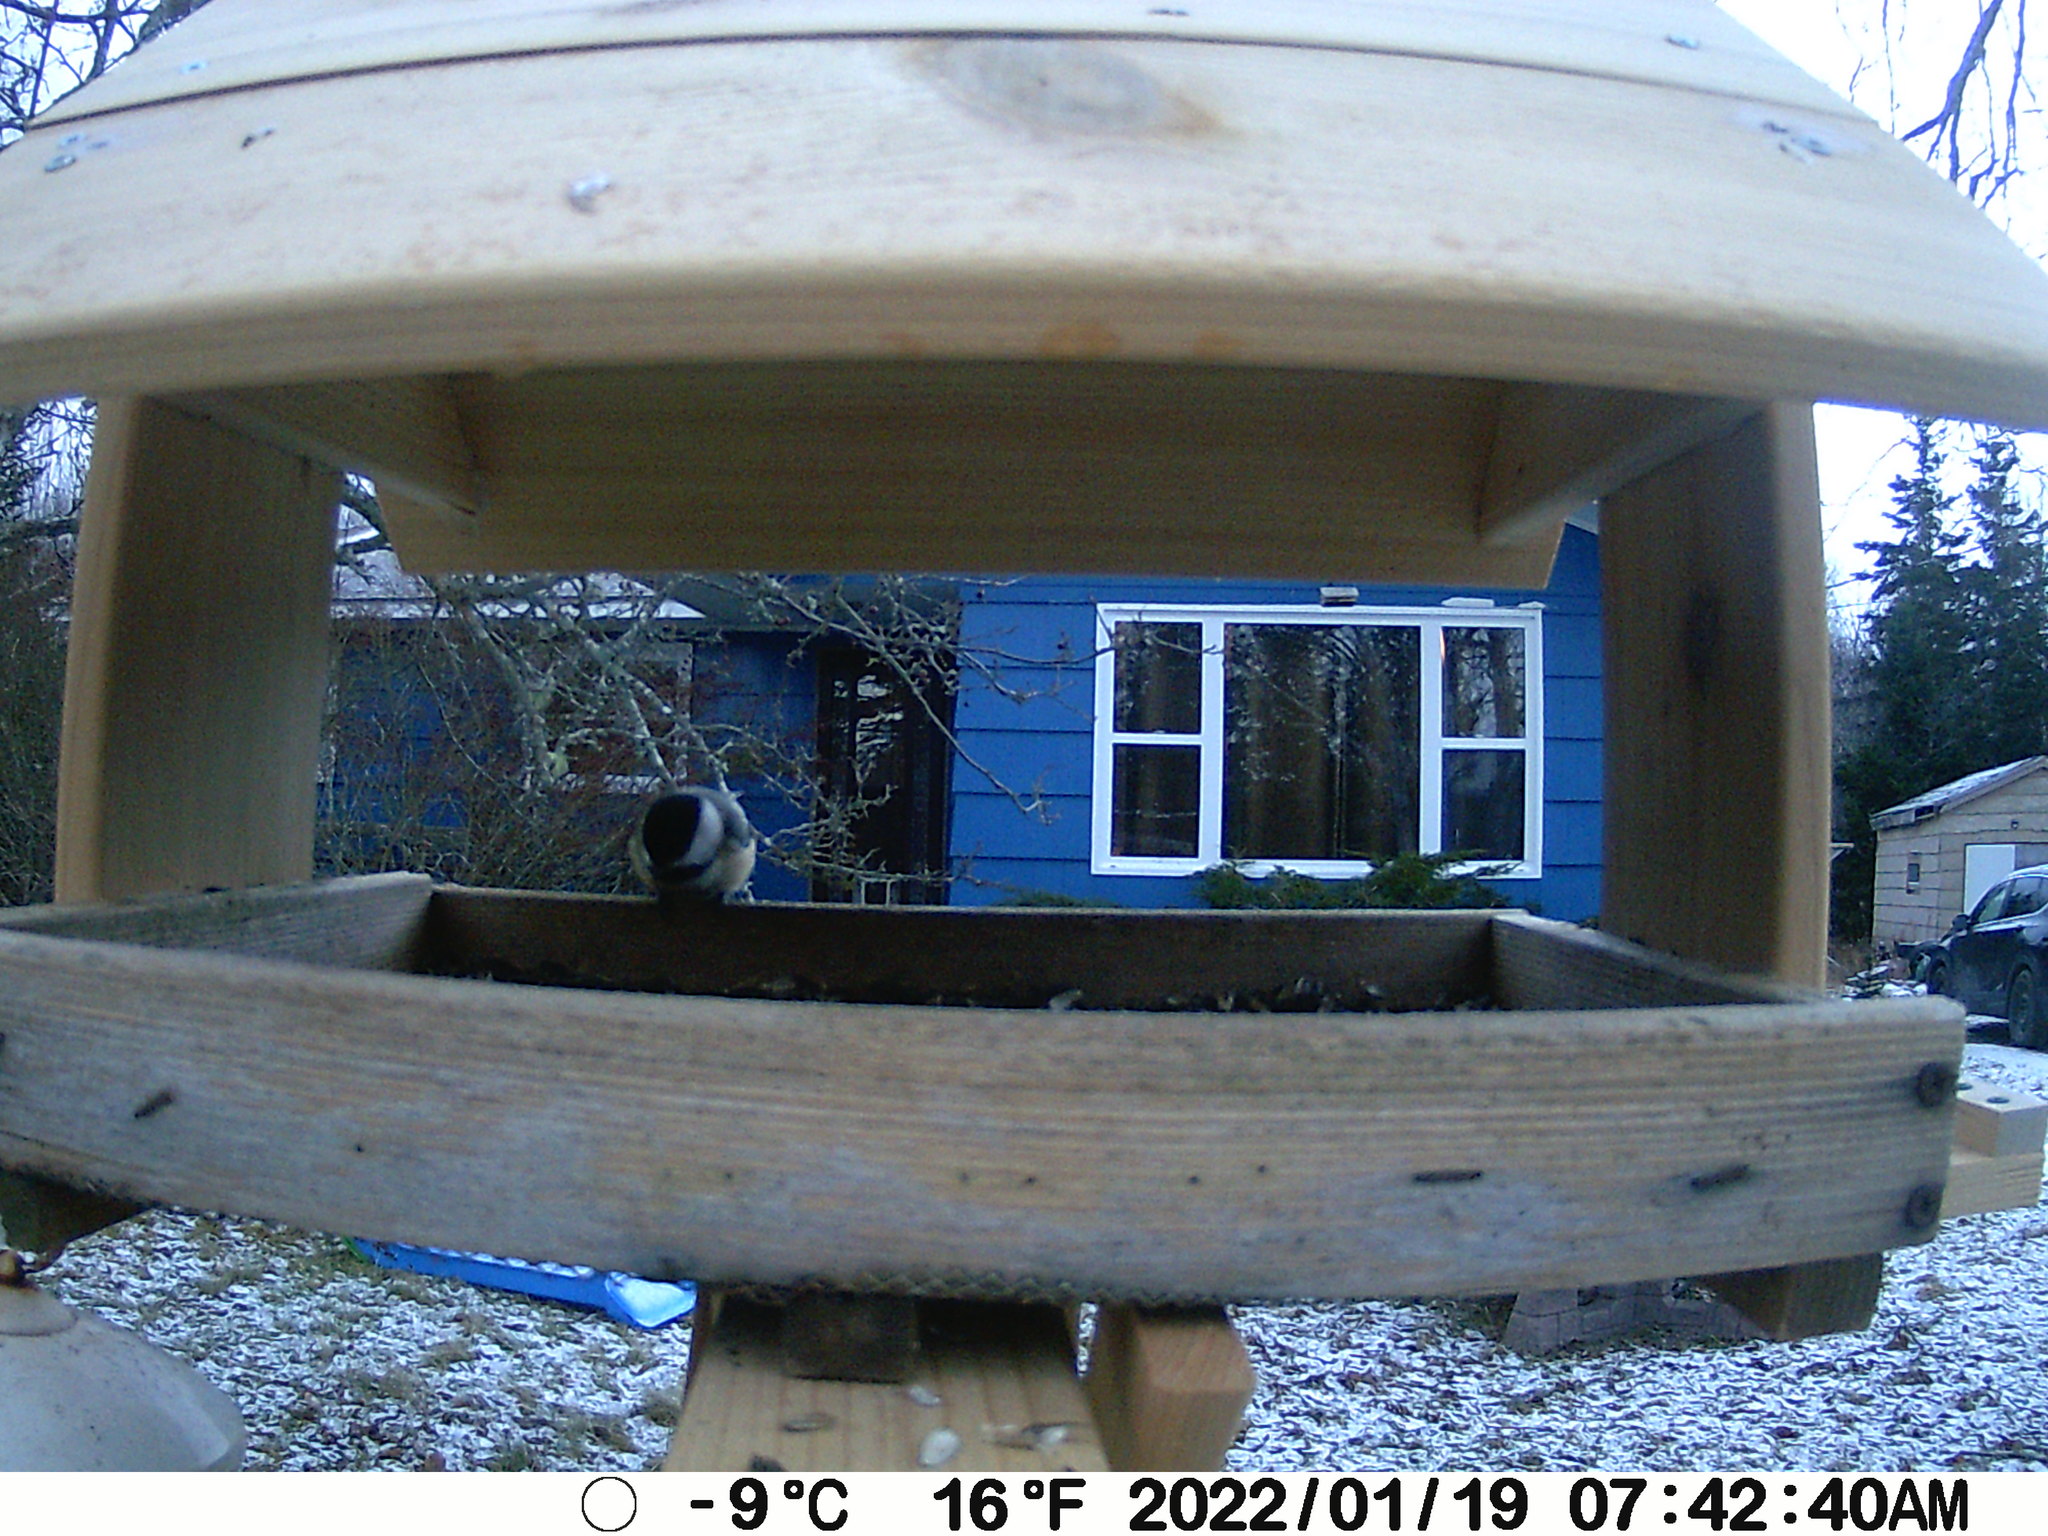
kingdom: Animalia
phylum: Chordata
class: Aves
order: Passeriformes
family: Paridae
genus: Poecile
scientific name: Poecile atricapillus
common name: Black-capped chickadee
